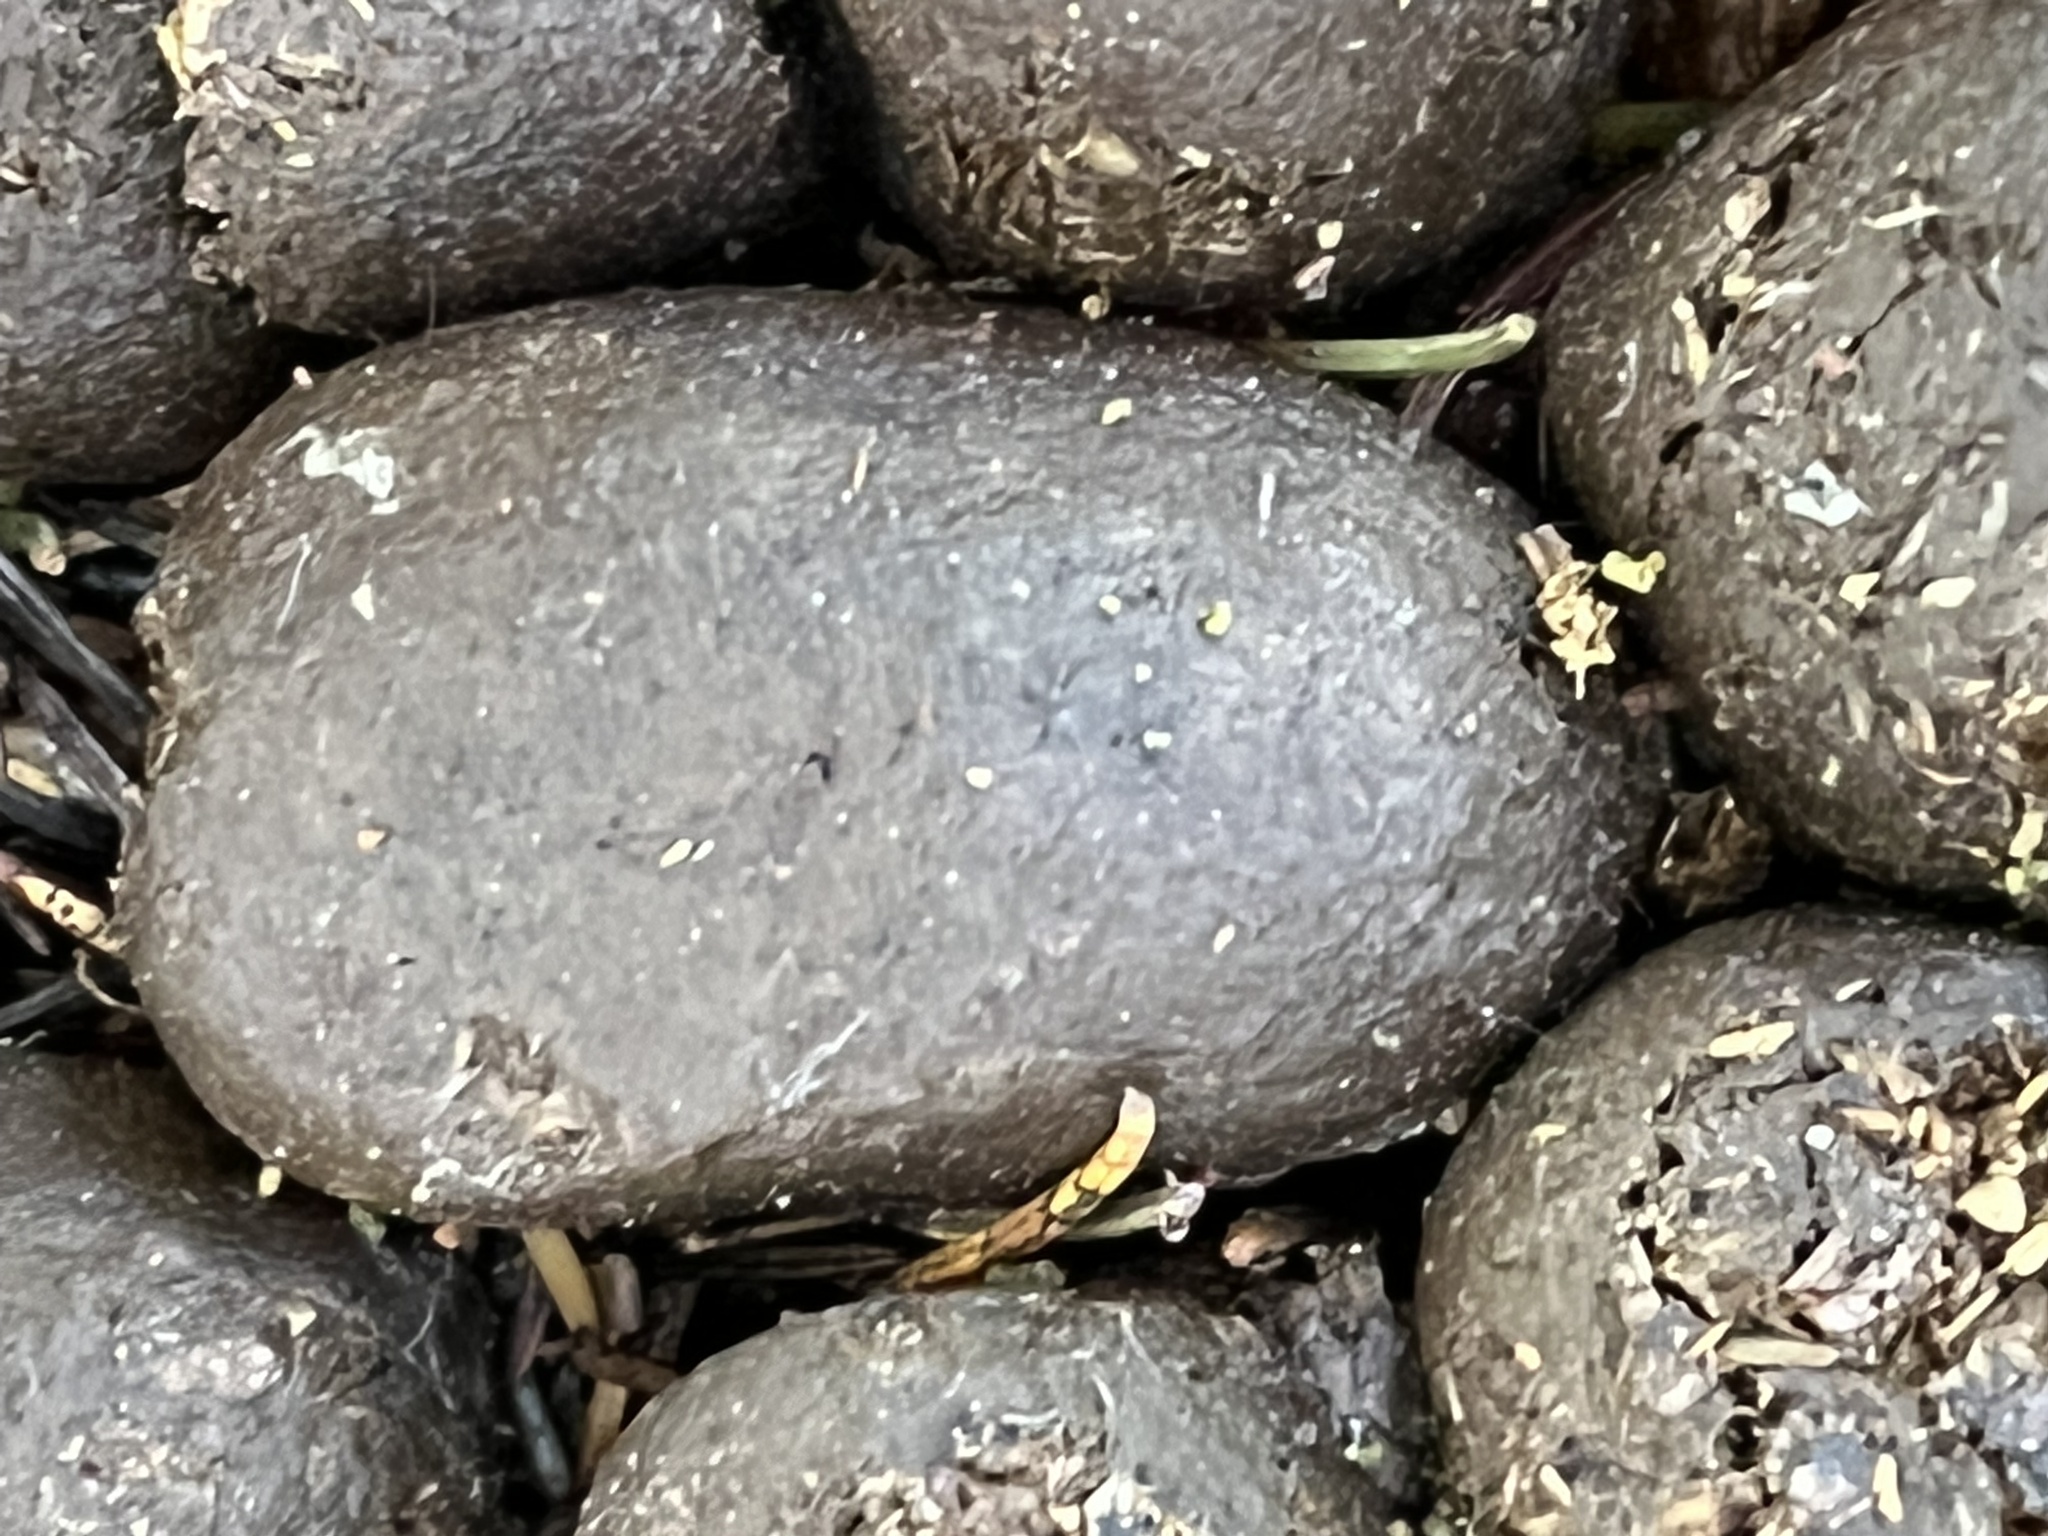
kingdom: Animalia
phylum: Chordata
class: Mammalia
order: Artiodactyla
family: Cervidae
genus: Alces
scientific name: Alces alces
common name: Moose
